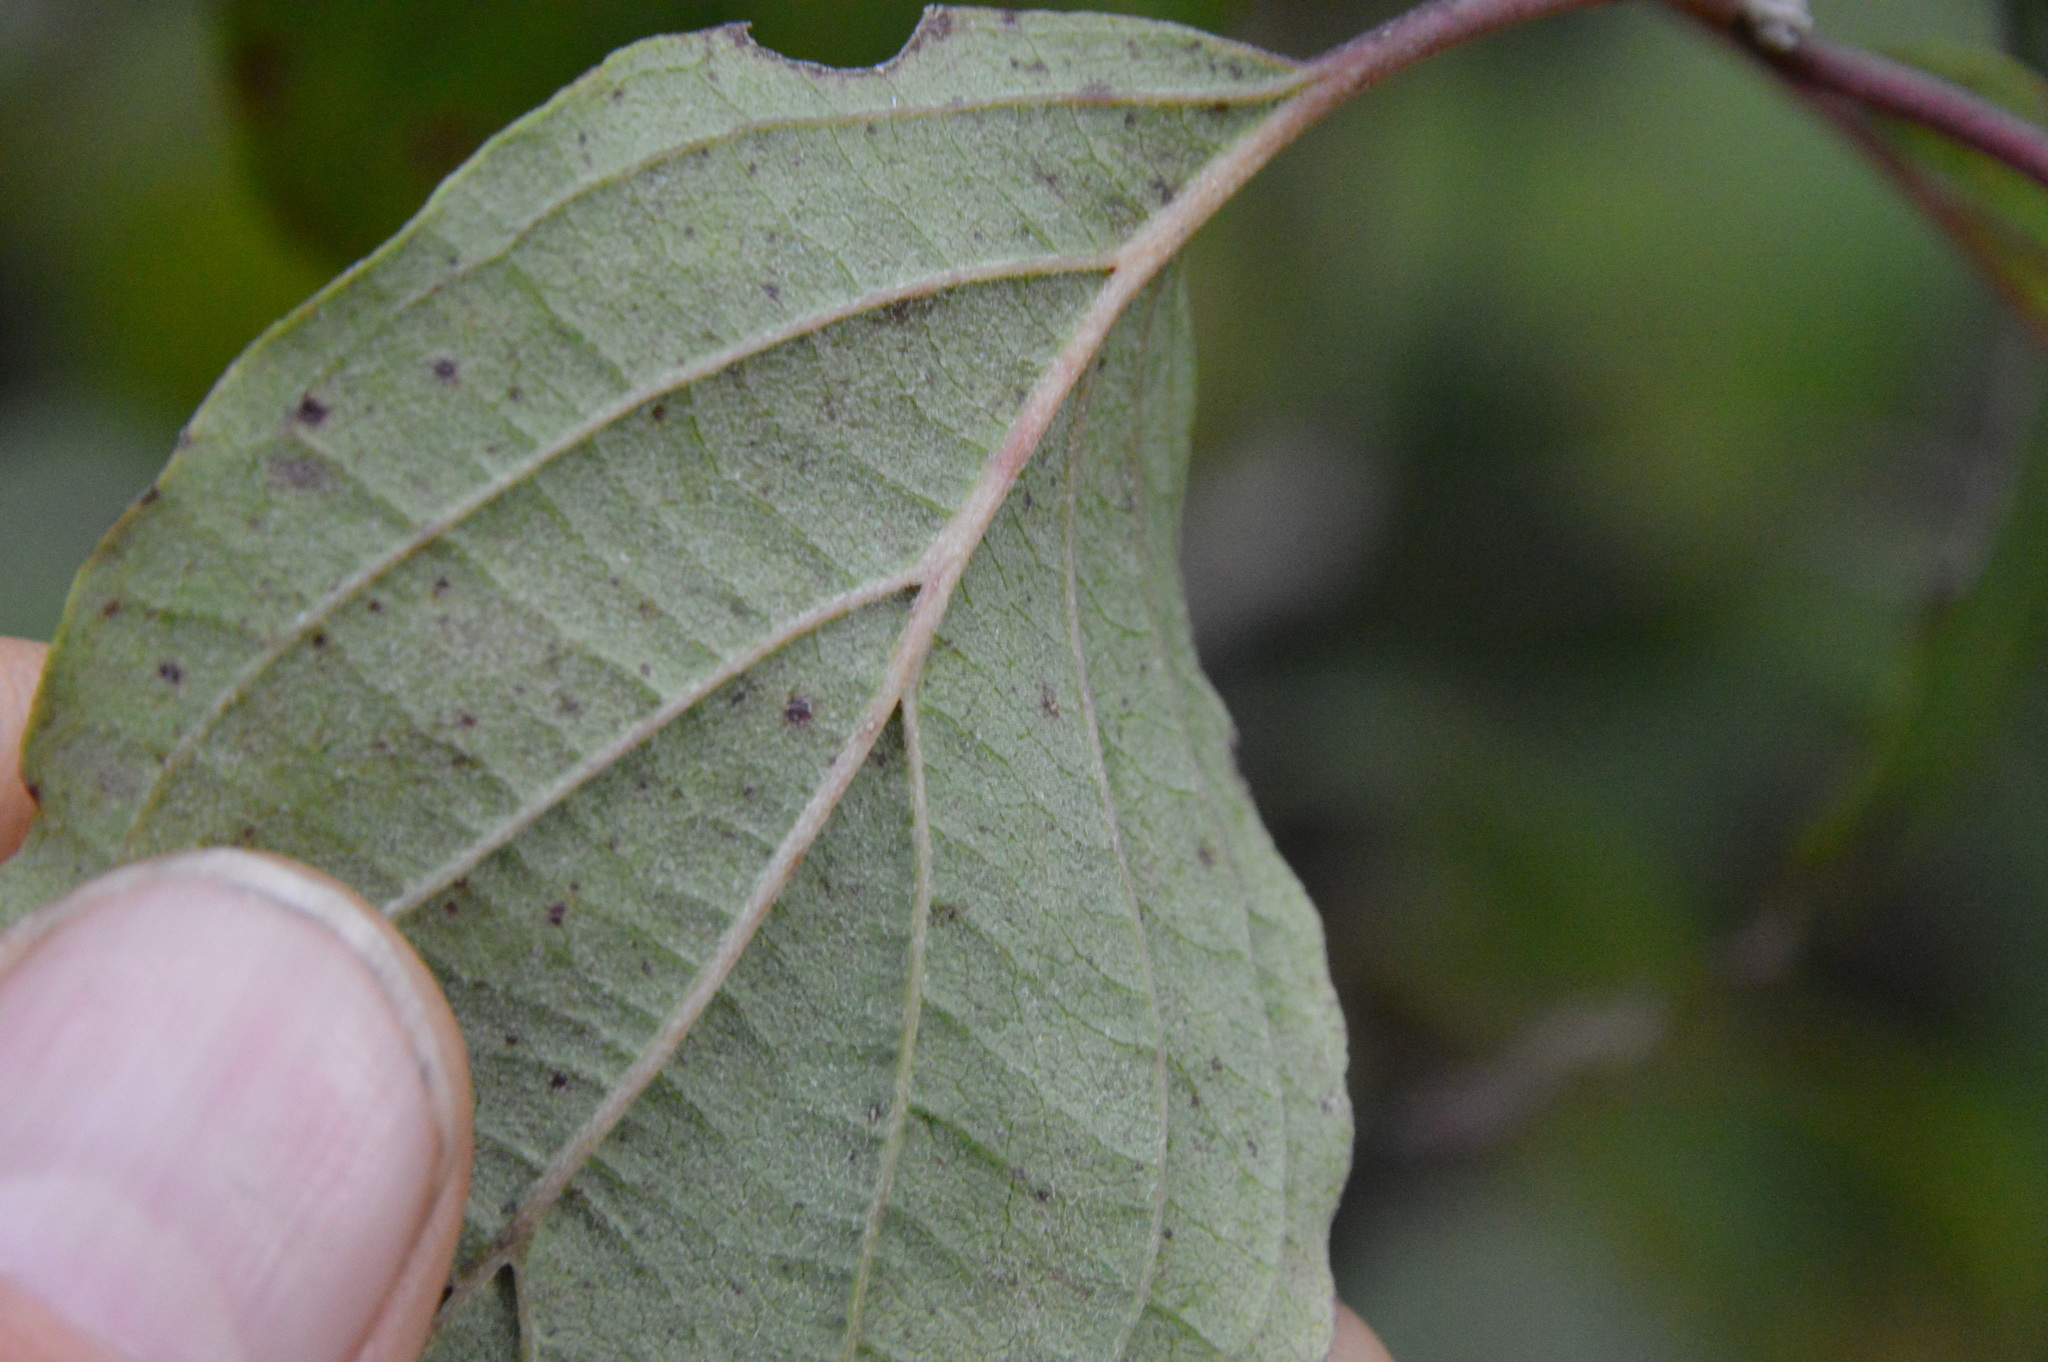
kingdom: Plantae
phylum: Tracheophyta
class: Magnoliopsida
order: Cornales
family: Cornaceae
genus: Cornus
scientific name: Cornus drummondii
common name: Rough-leaf dogwood
